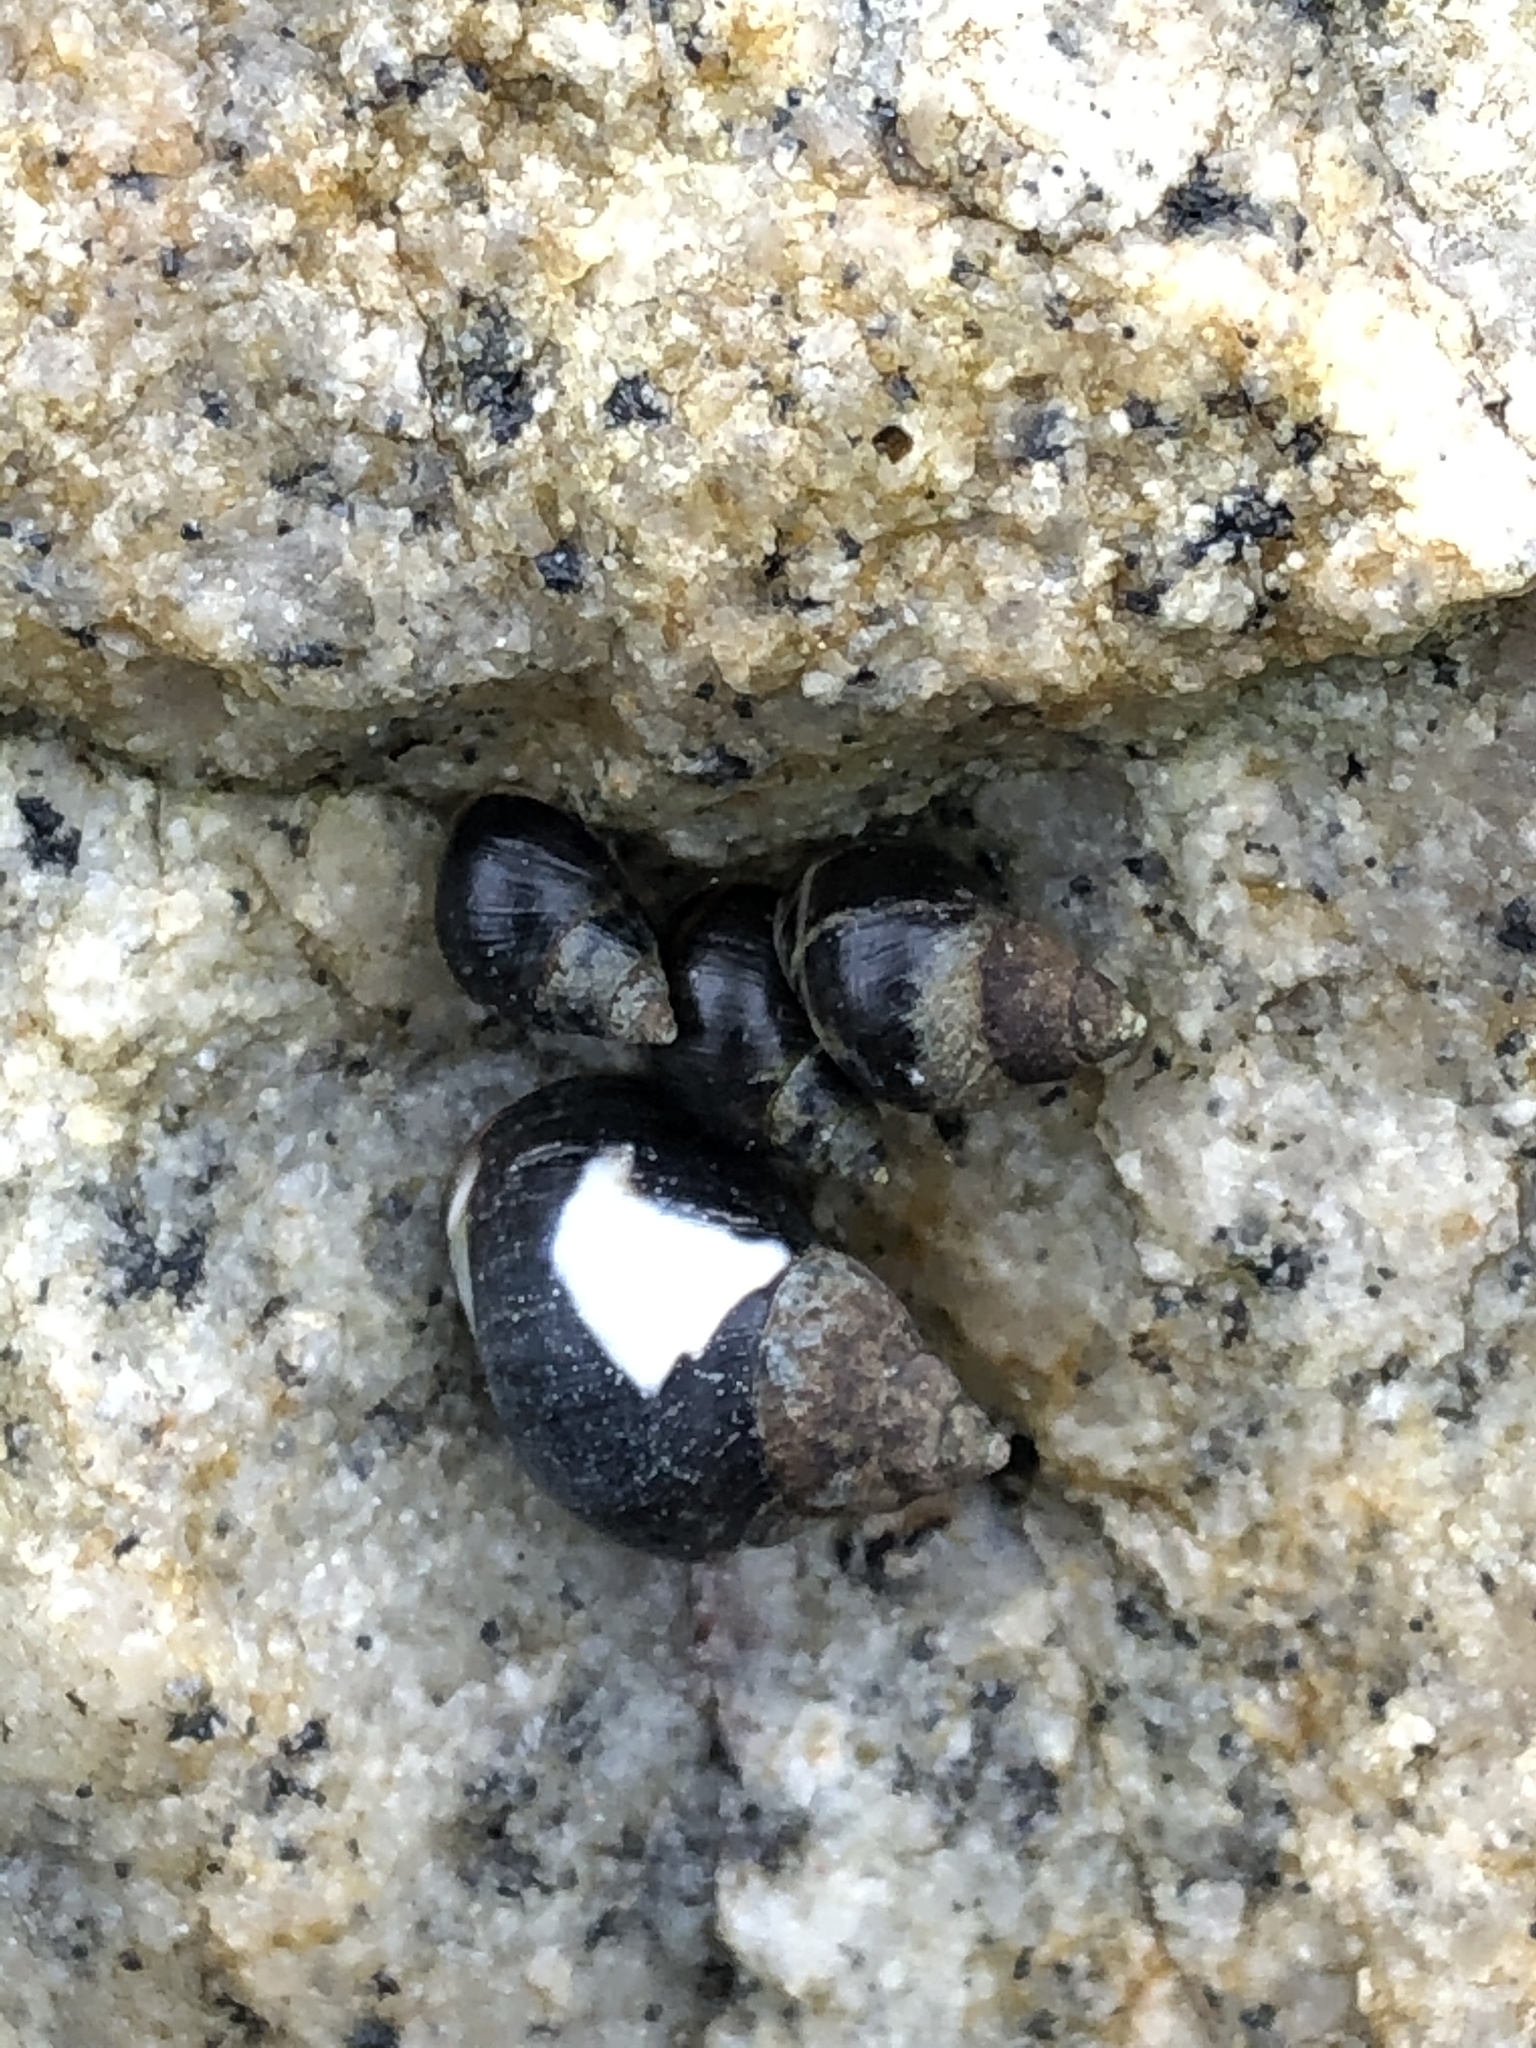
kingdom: Animalia
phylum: Mollusca
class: Gastropoda
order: Littorinimorpha
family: Littorinidae
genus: Echinolittorina
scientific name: Echinolittorina peruviana
